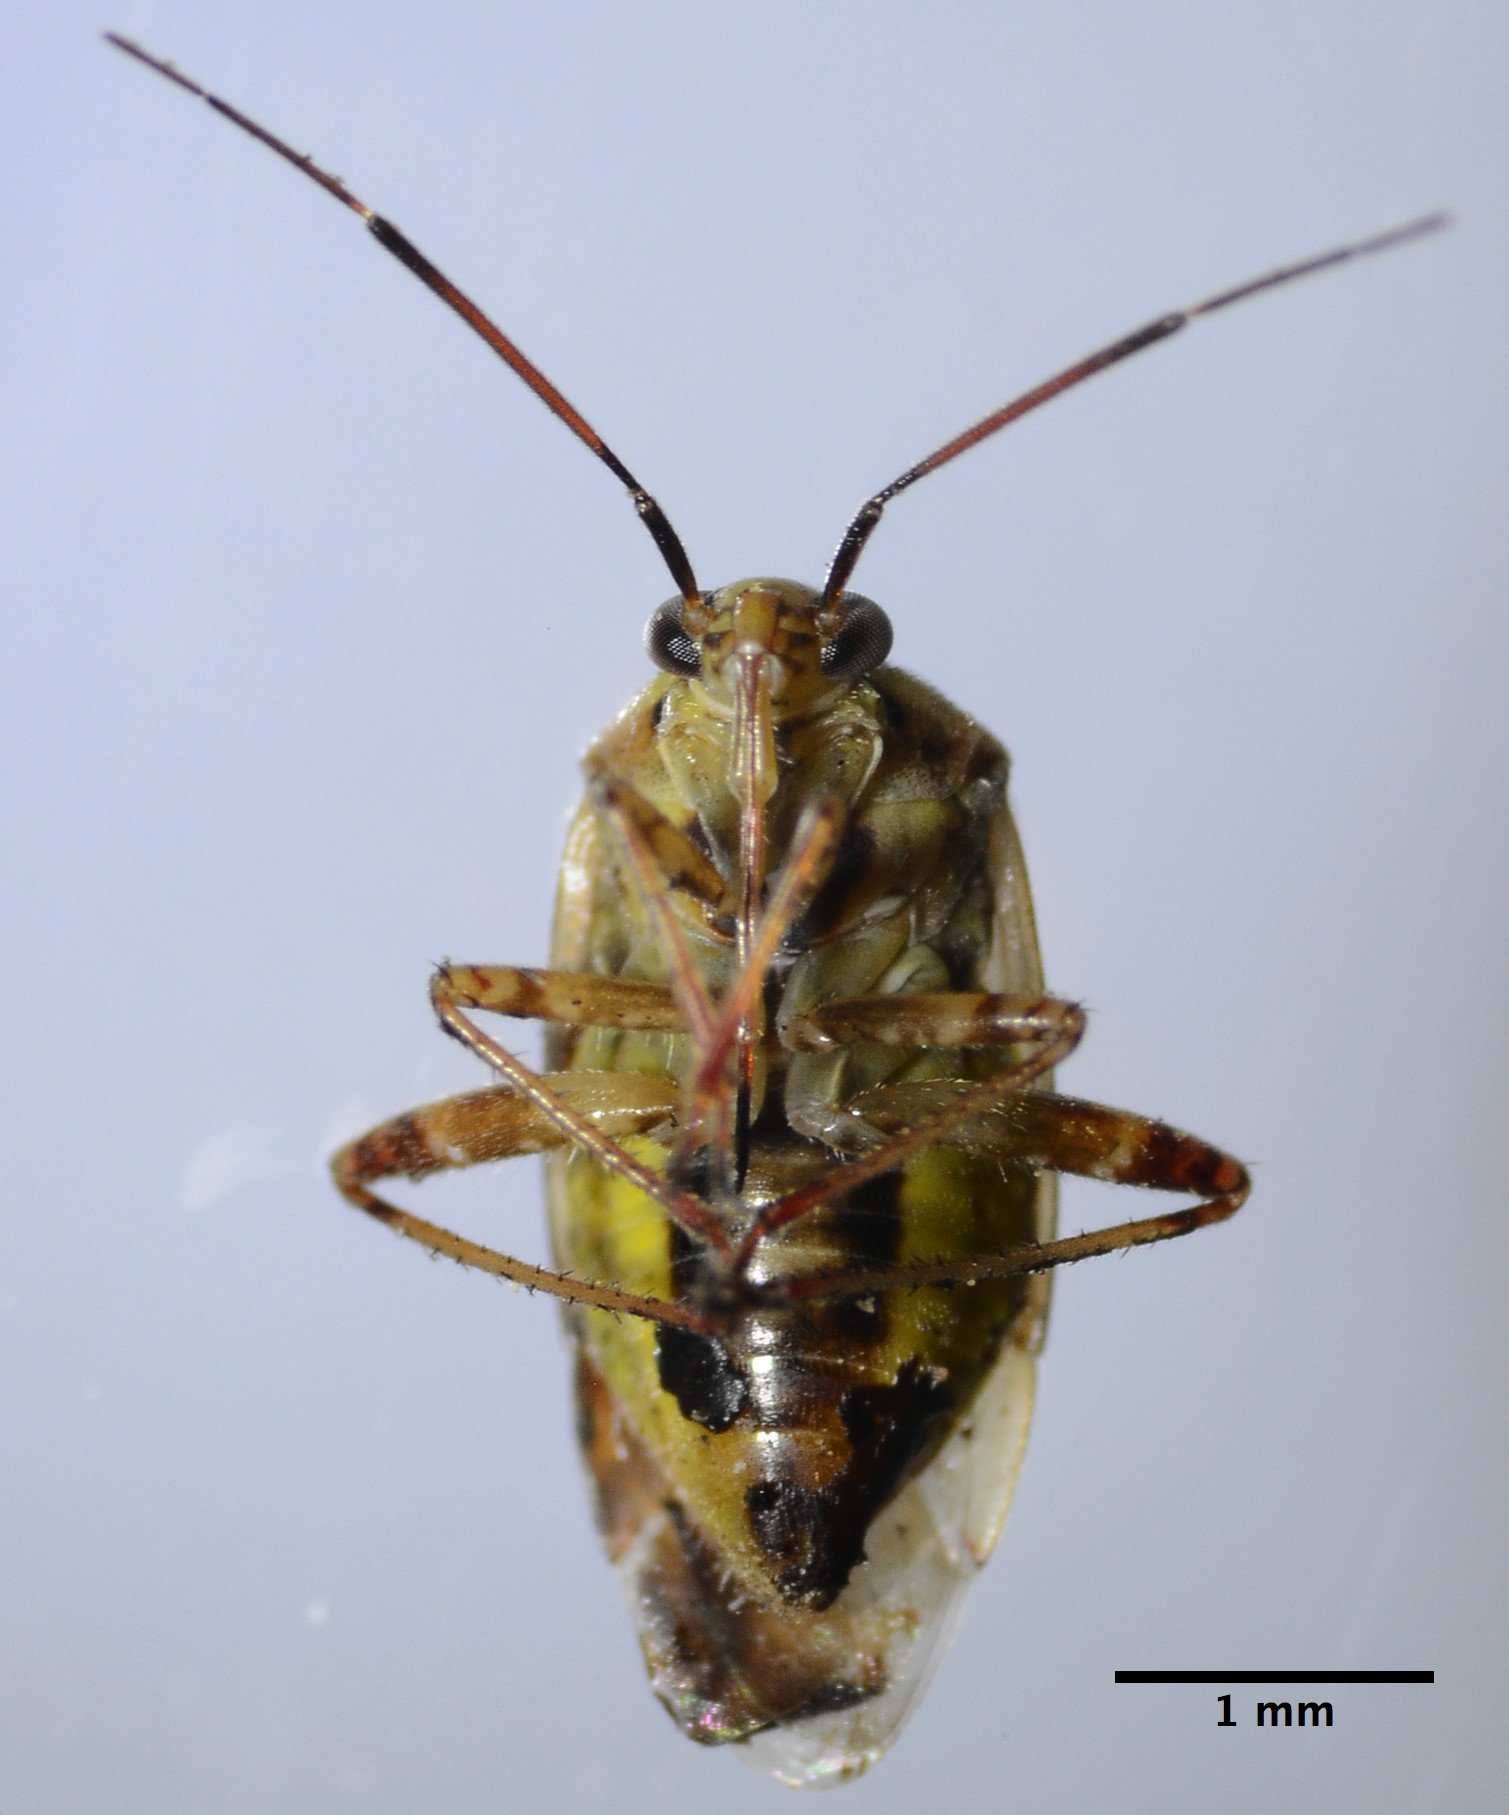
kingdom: Animalia
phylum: Arthropoda
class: Insecta
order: Hemiptera
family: Miridae
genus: Lygus
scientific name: Lygus hesperus
